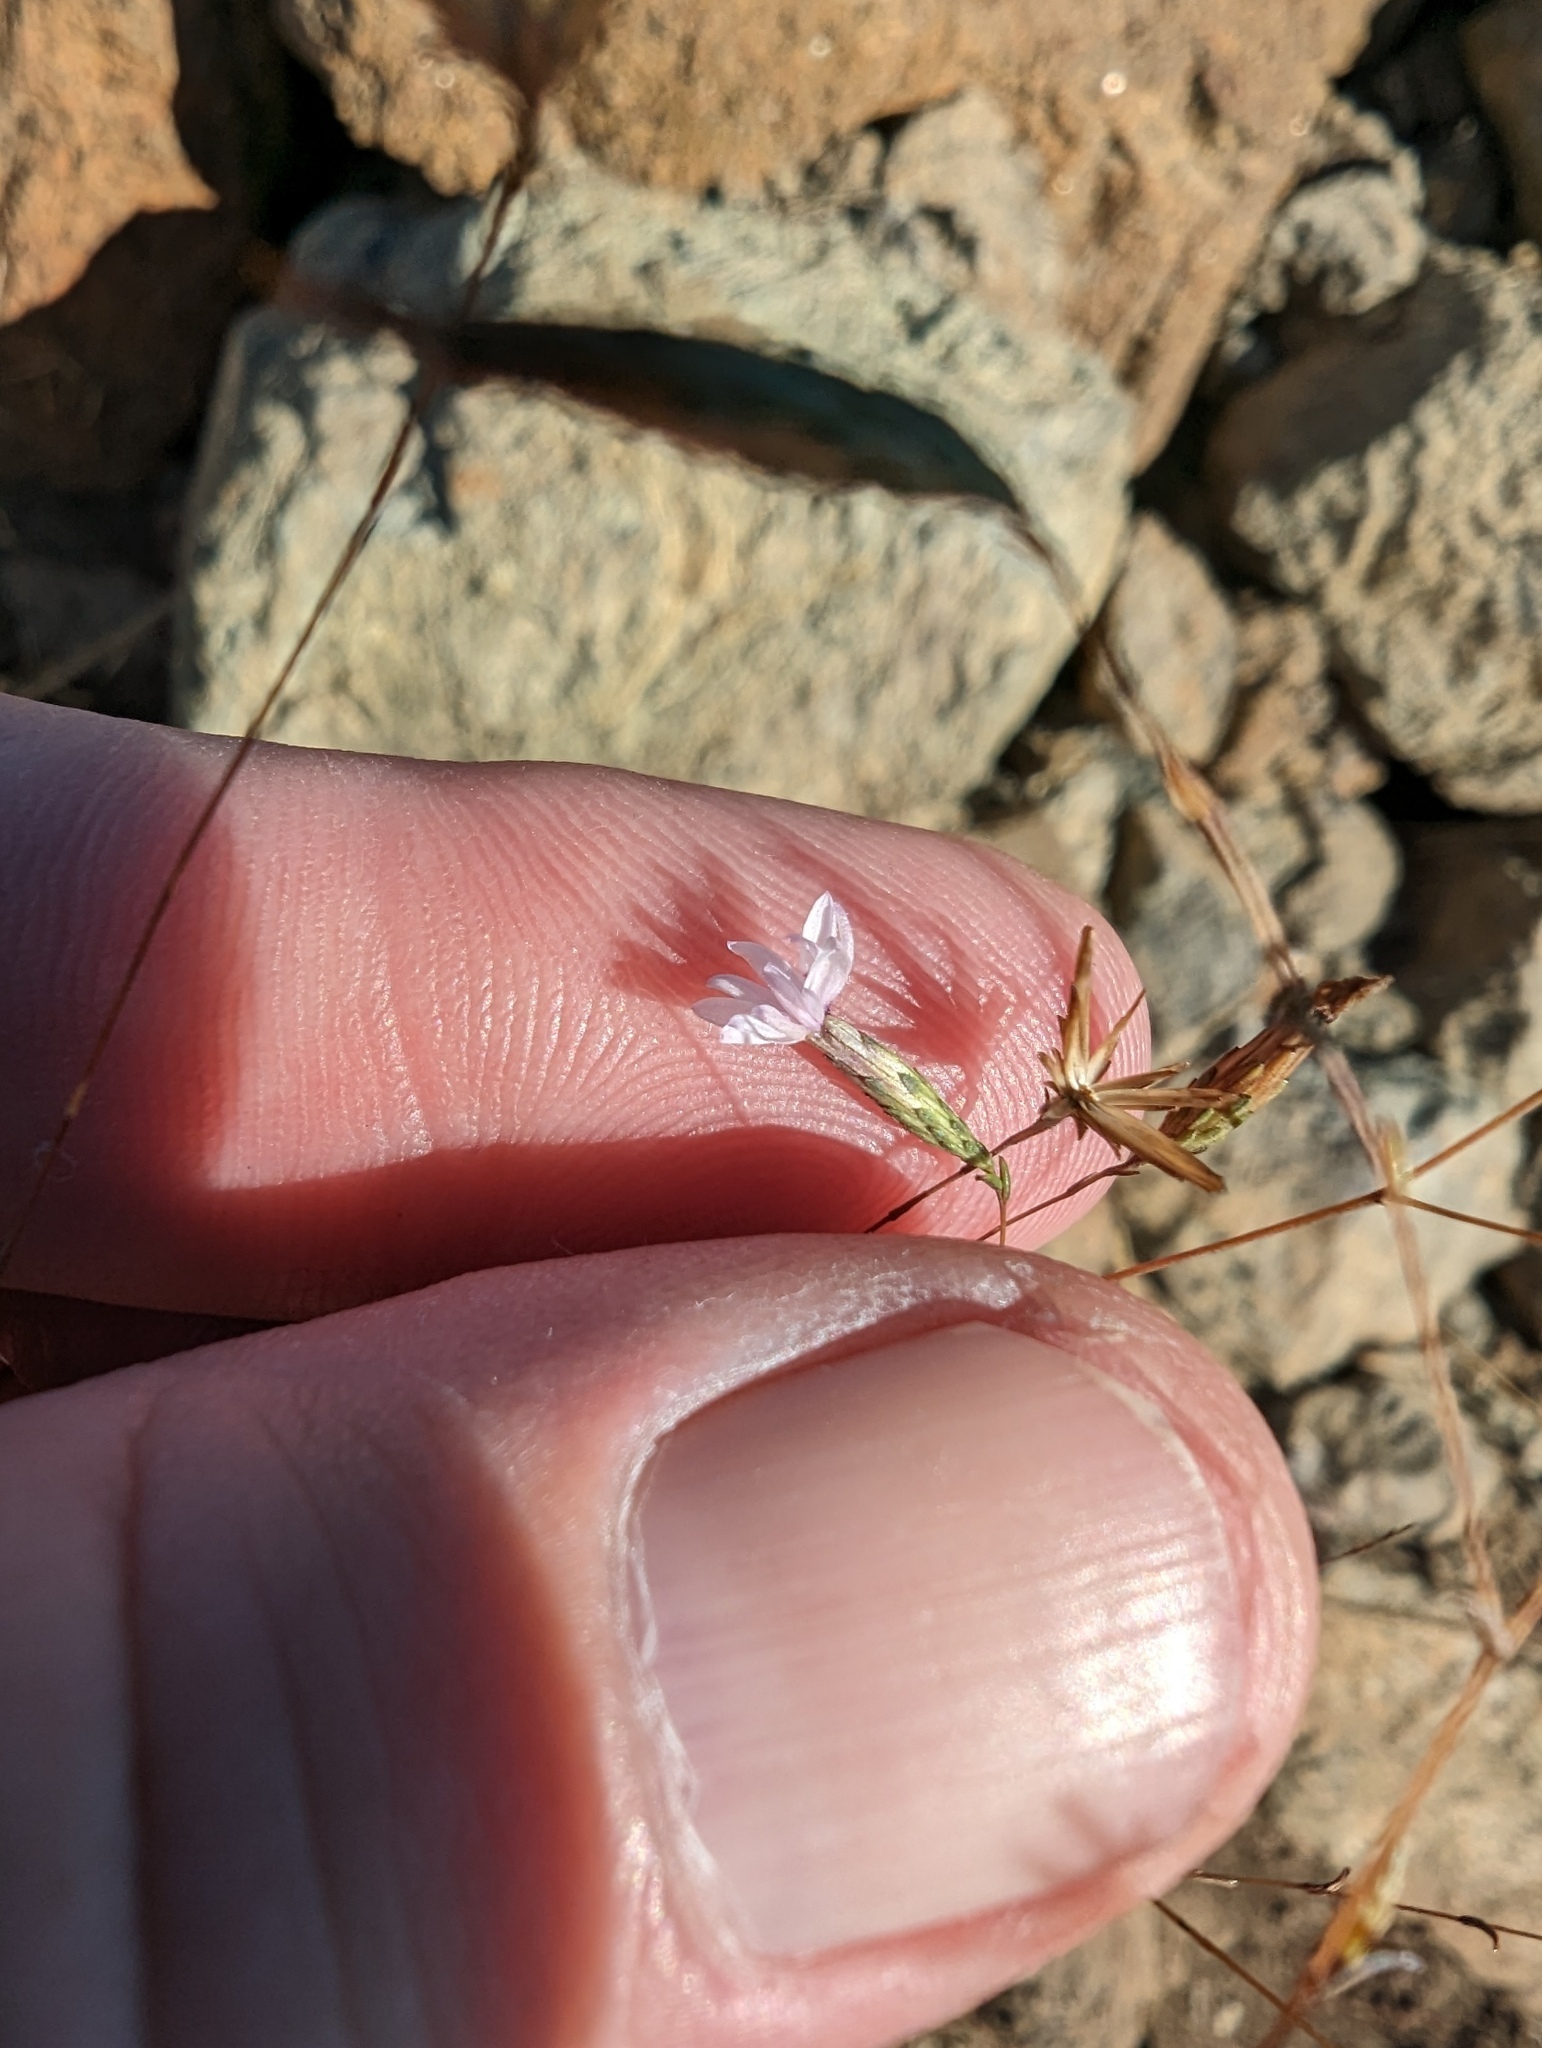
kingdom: Plantae
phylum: Tracheophyta
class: Magnoliopsida
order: Asterales
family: Asteraceae
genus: Lessingia
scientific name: Lessingia micradenia
